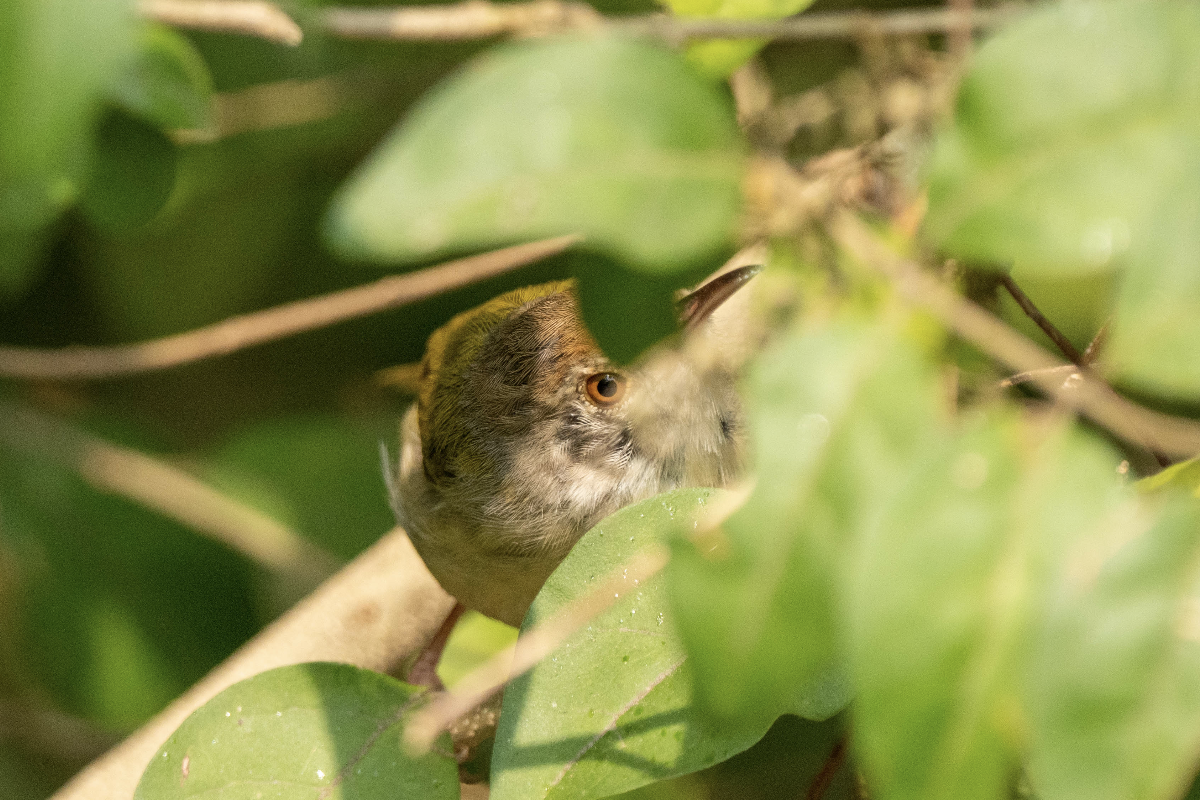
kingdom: Animalia
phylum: Chordata
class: Aves
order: Passeriformes
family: Cisticolidae
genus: Orthotomus
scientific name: Orthotomus sutorius
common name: Common tailorbird
